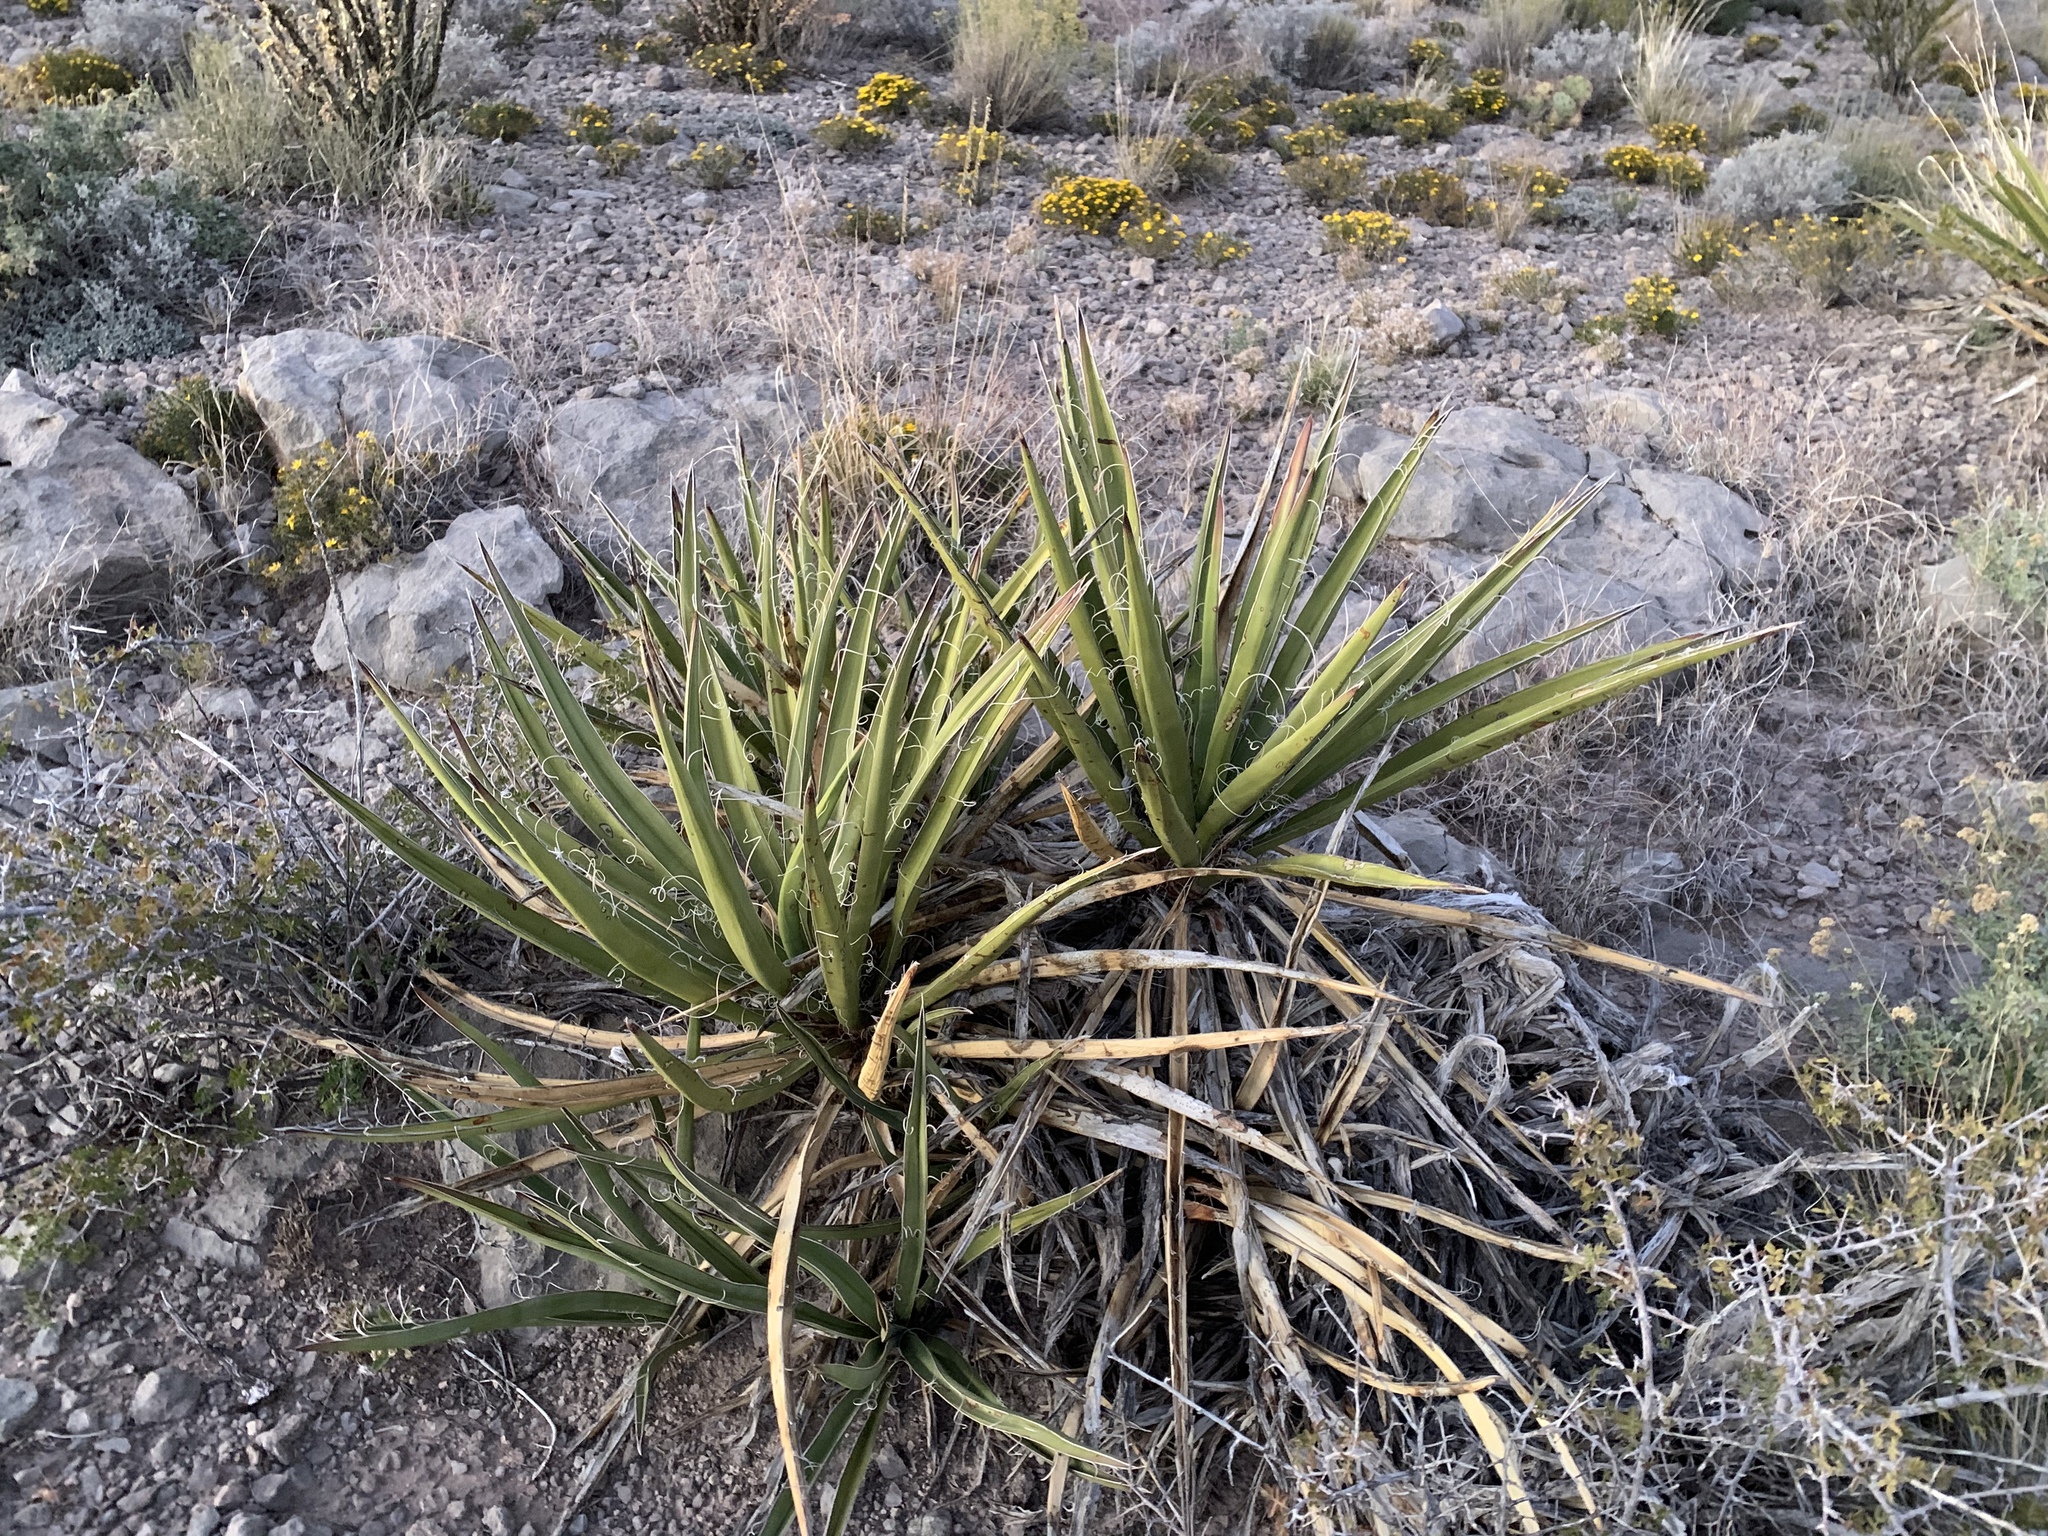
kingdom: Plantae
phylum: Tracheophyta
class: Liliopsida
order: Asparagales
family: Asparagaceae
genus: Yucca
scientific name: Yucca baccata
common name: Banana yucca
